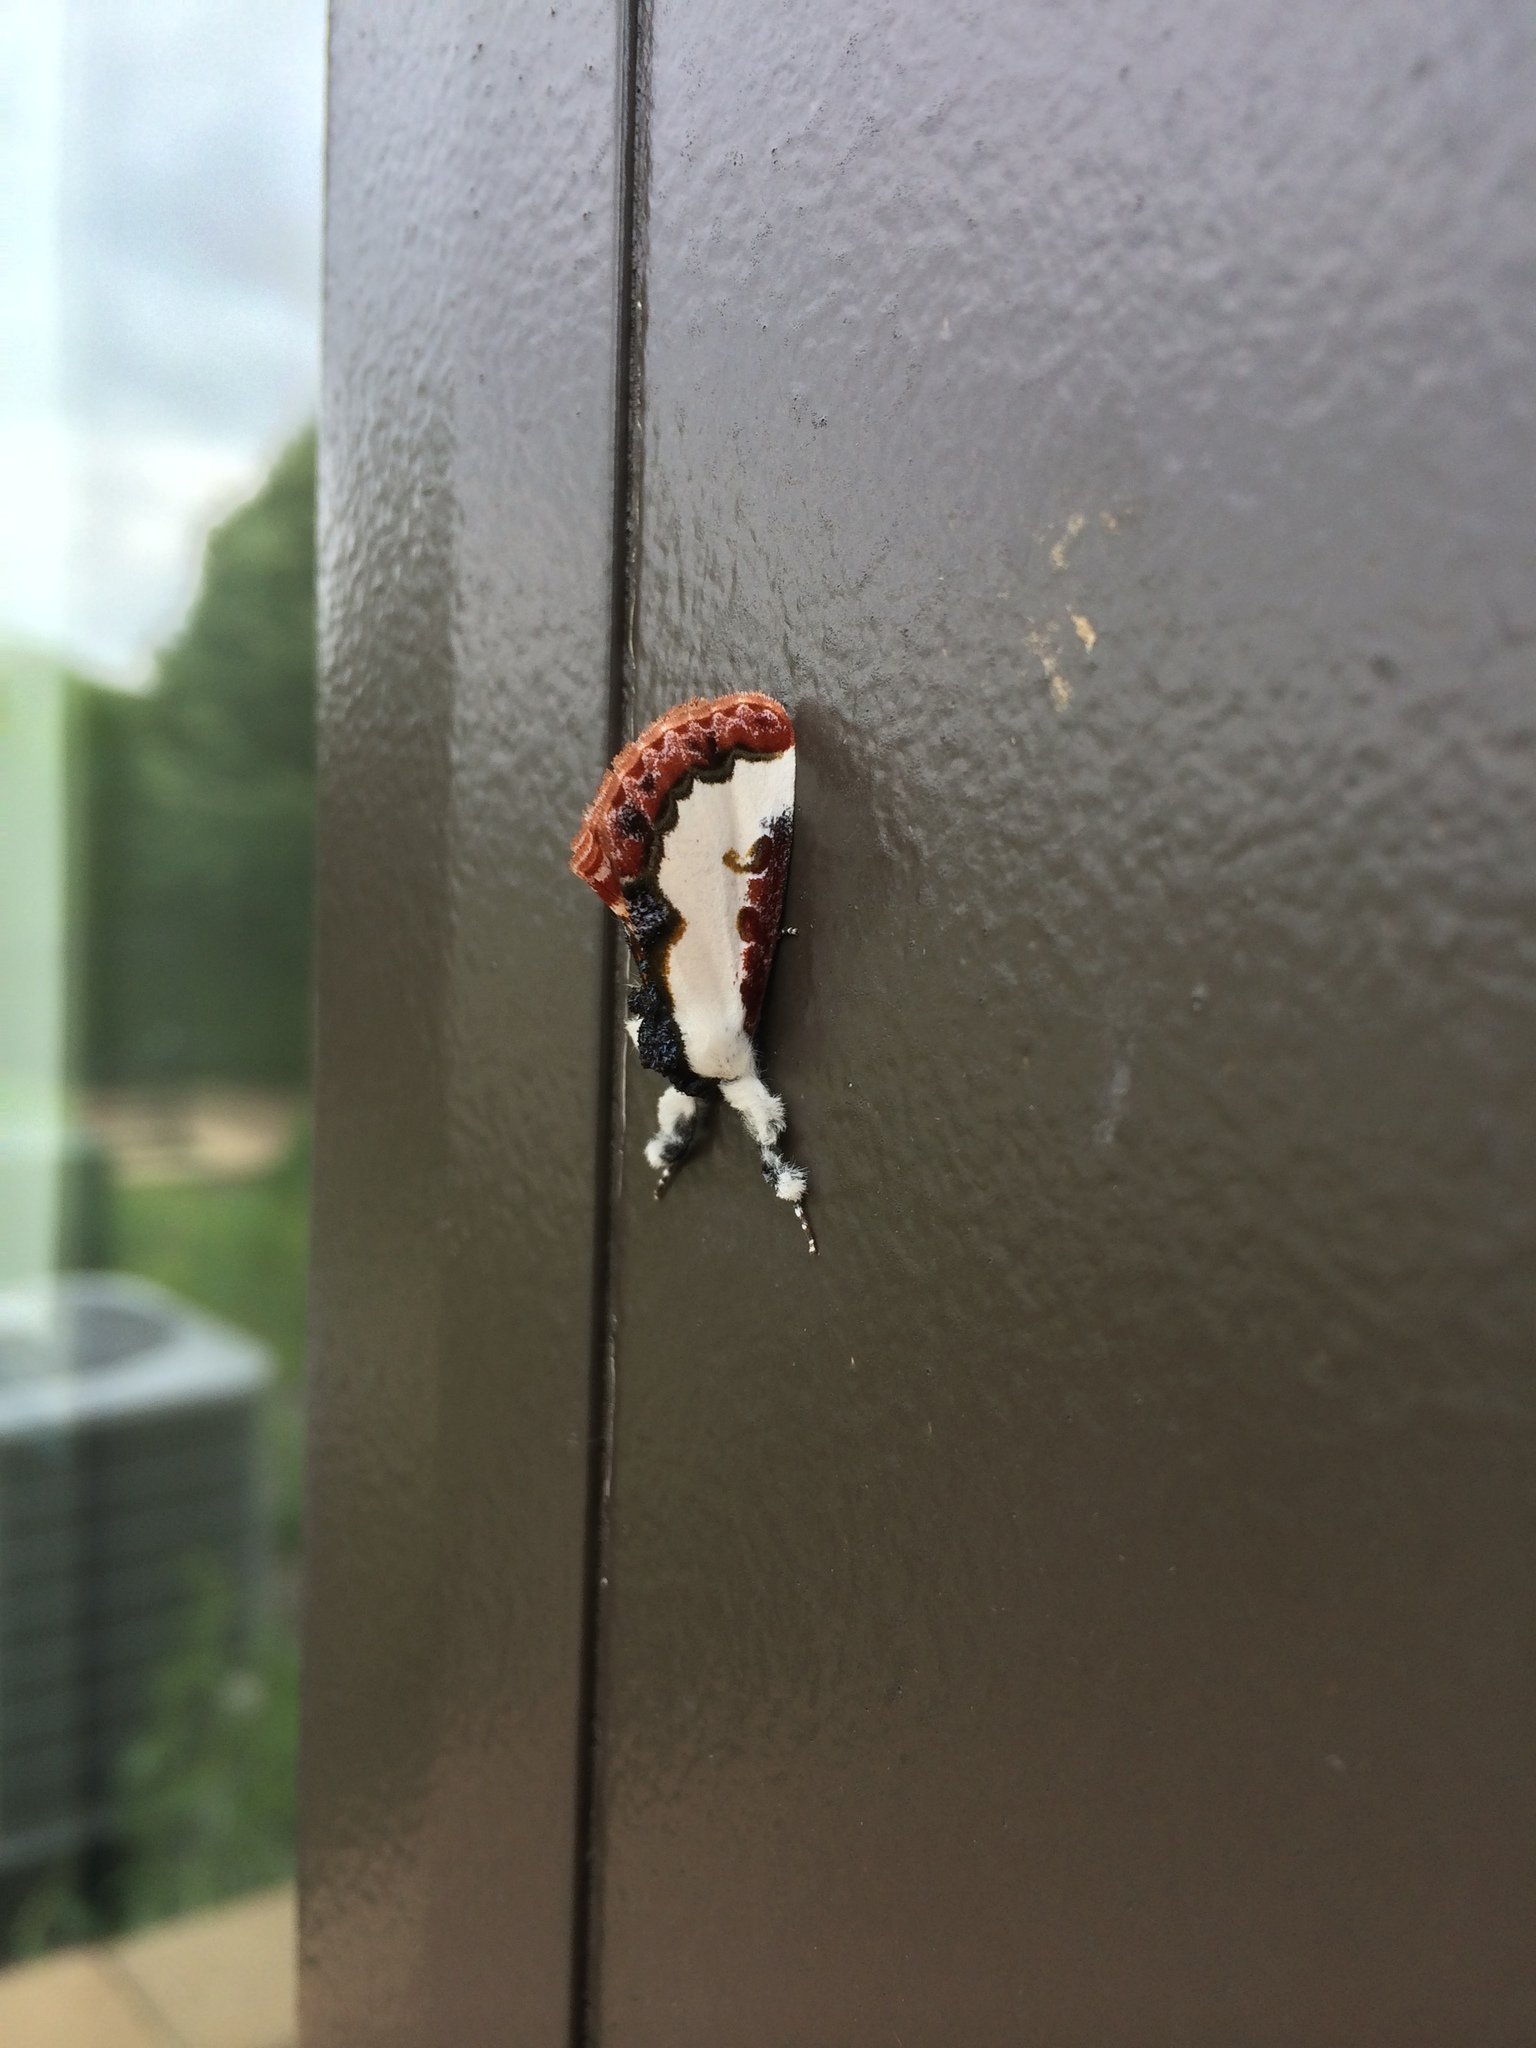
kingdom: Animalia
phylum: Arthropoda
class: Insecta
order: Lepidoptera
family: Noctuidae
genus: Eudryas
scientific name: Eudryas unio
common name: Pearly wood-nymph
